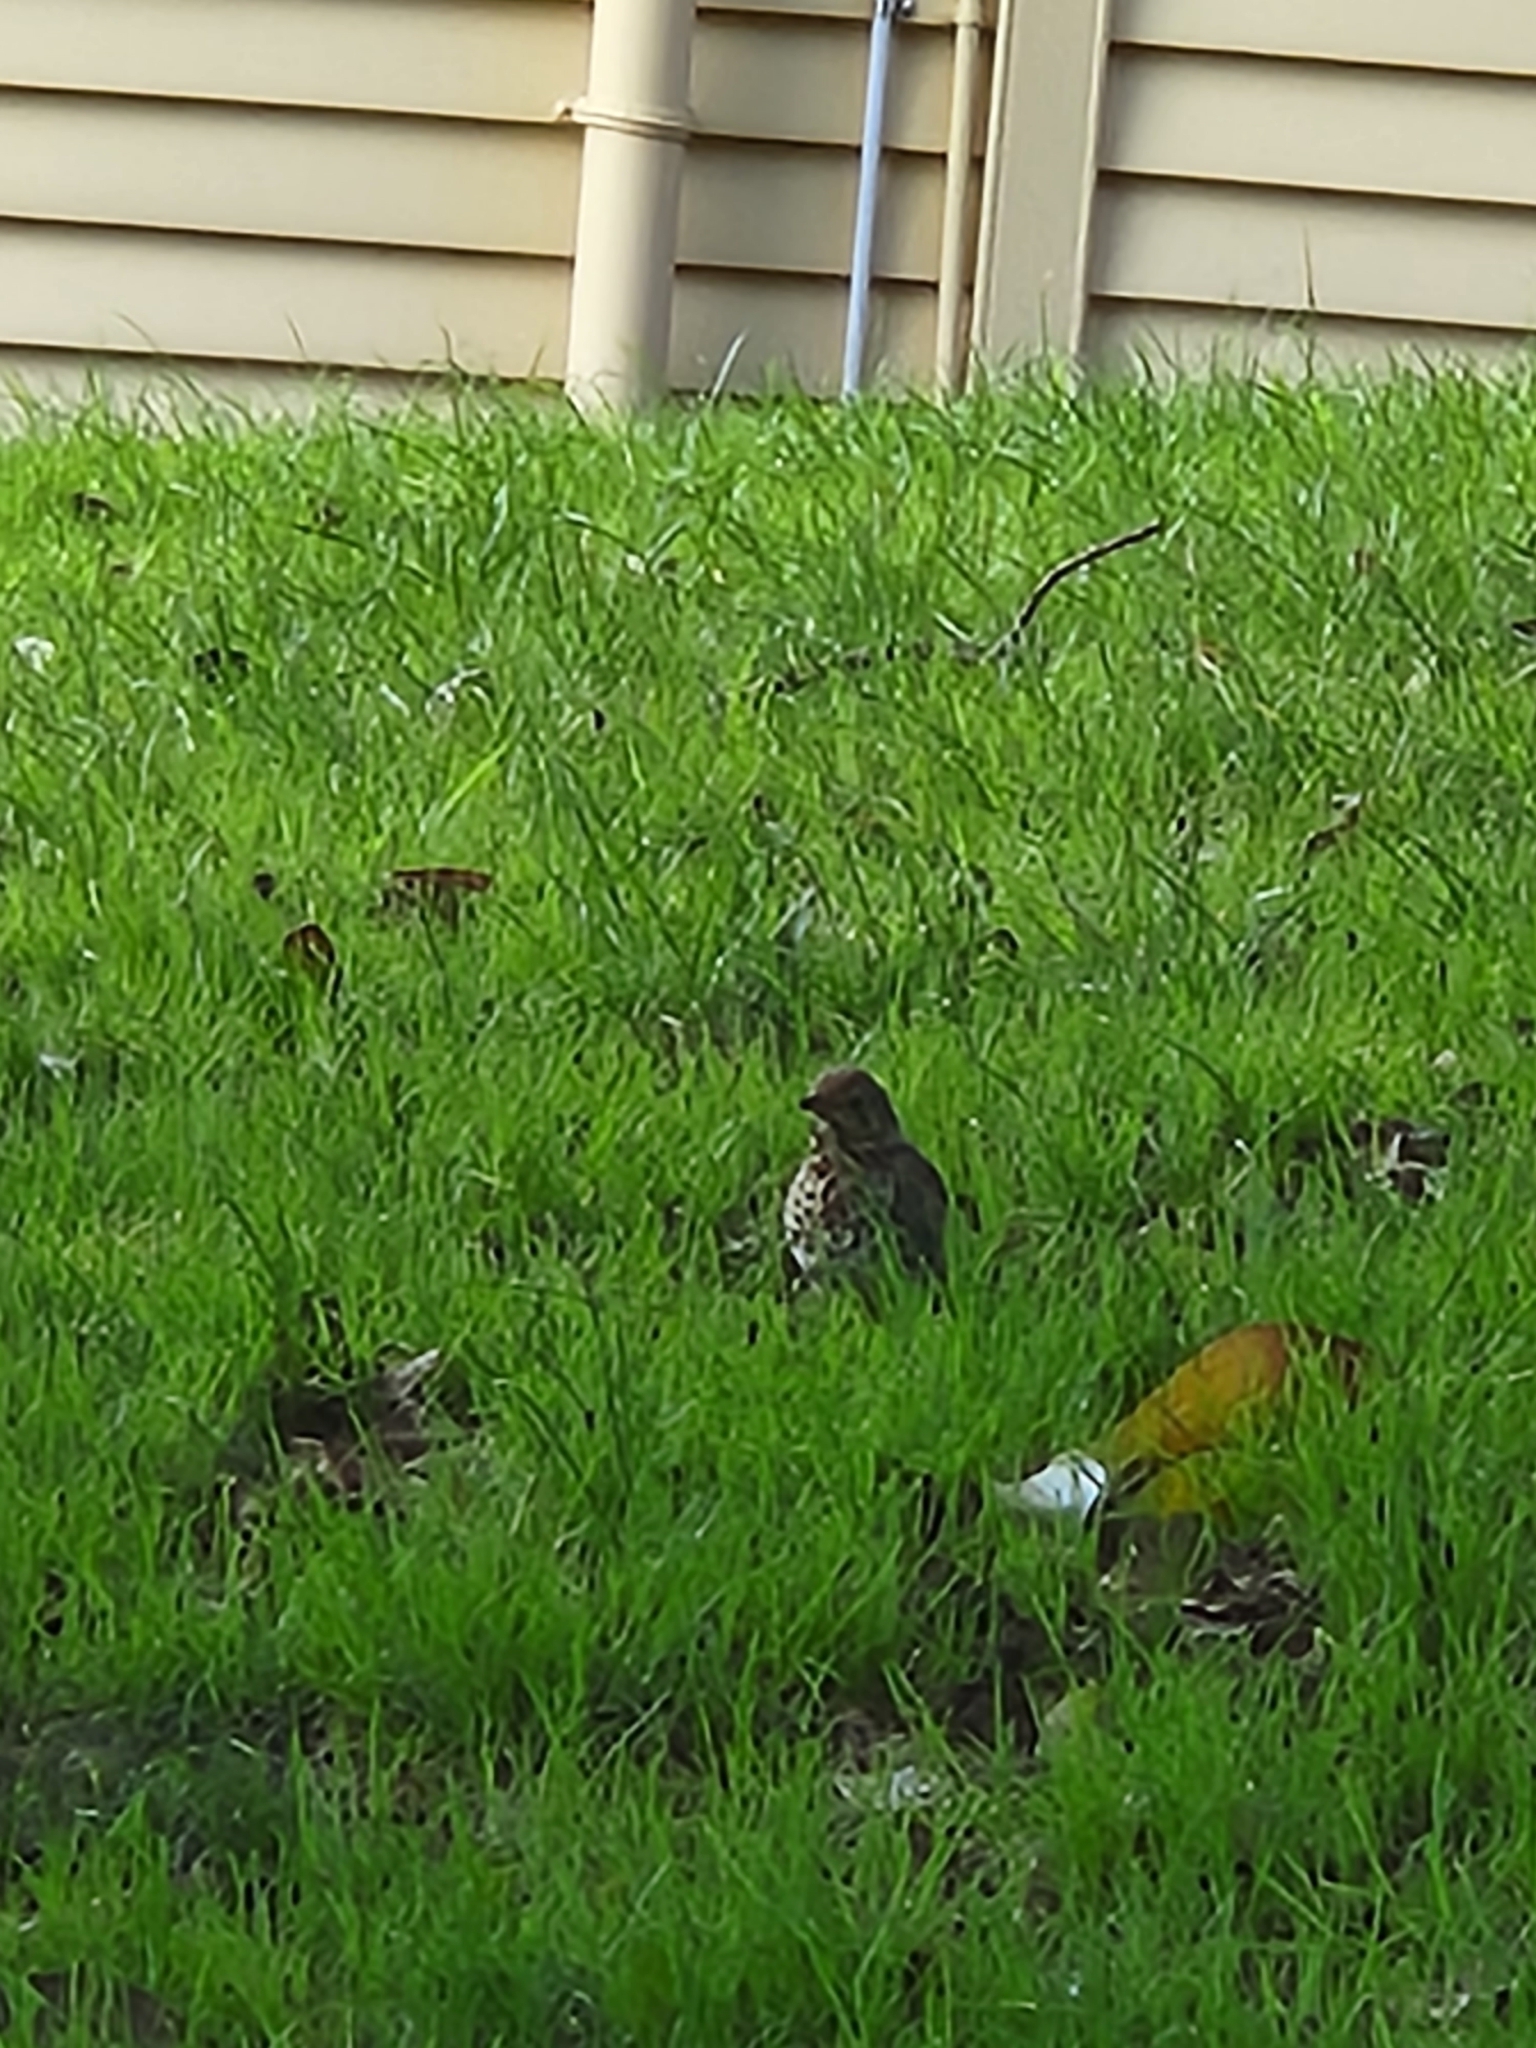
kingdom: Animalia
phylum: Chordata
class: Aves
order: Passeriformes
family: Turdidae
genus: Turdus
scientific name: Turdus philomelos
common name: Song thrush
